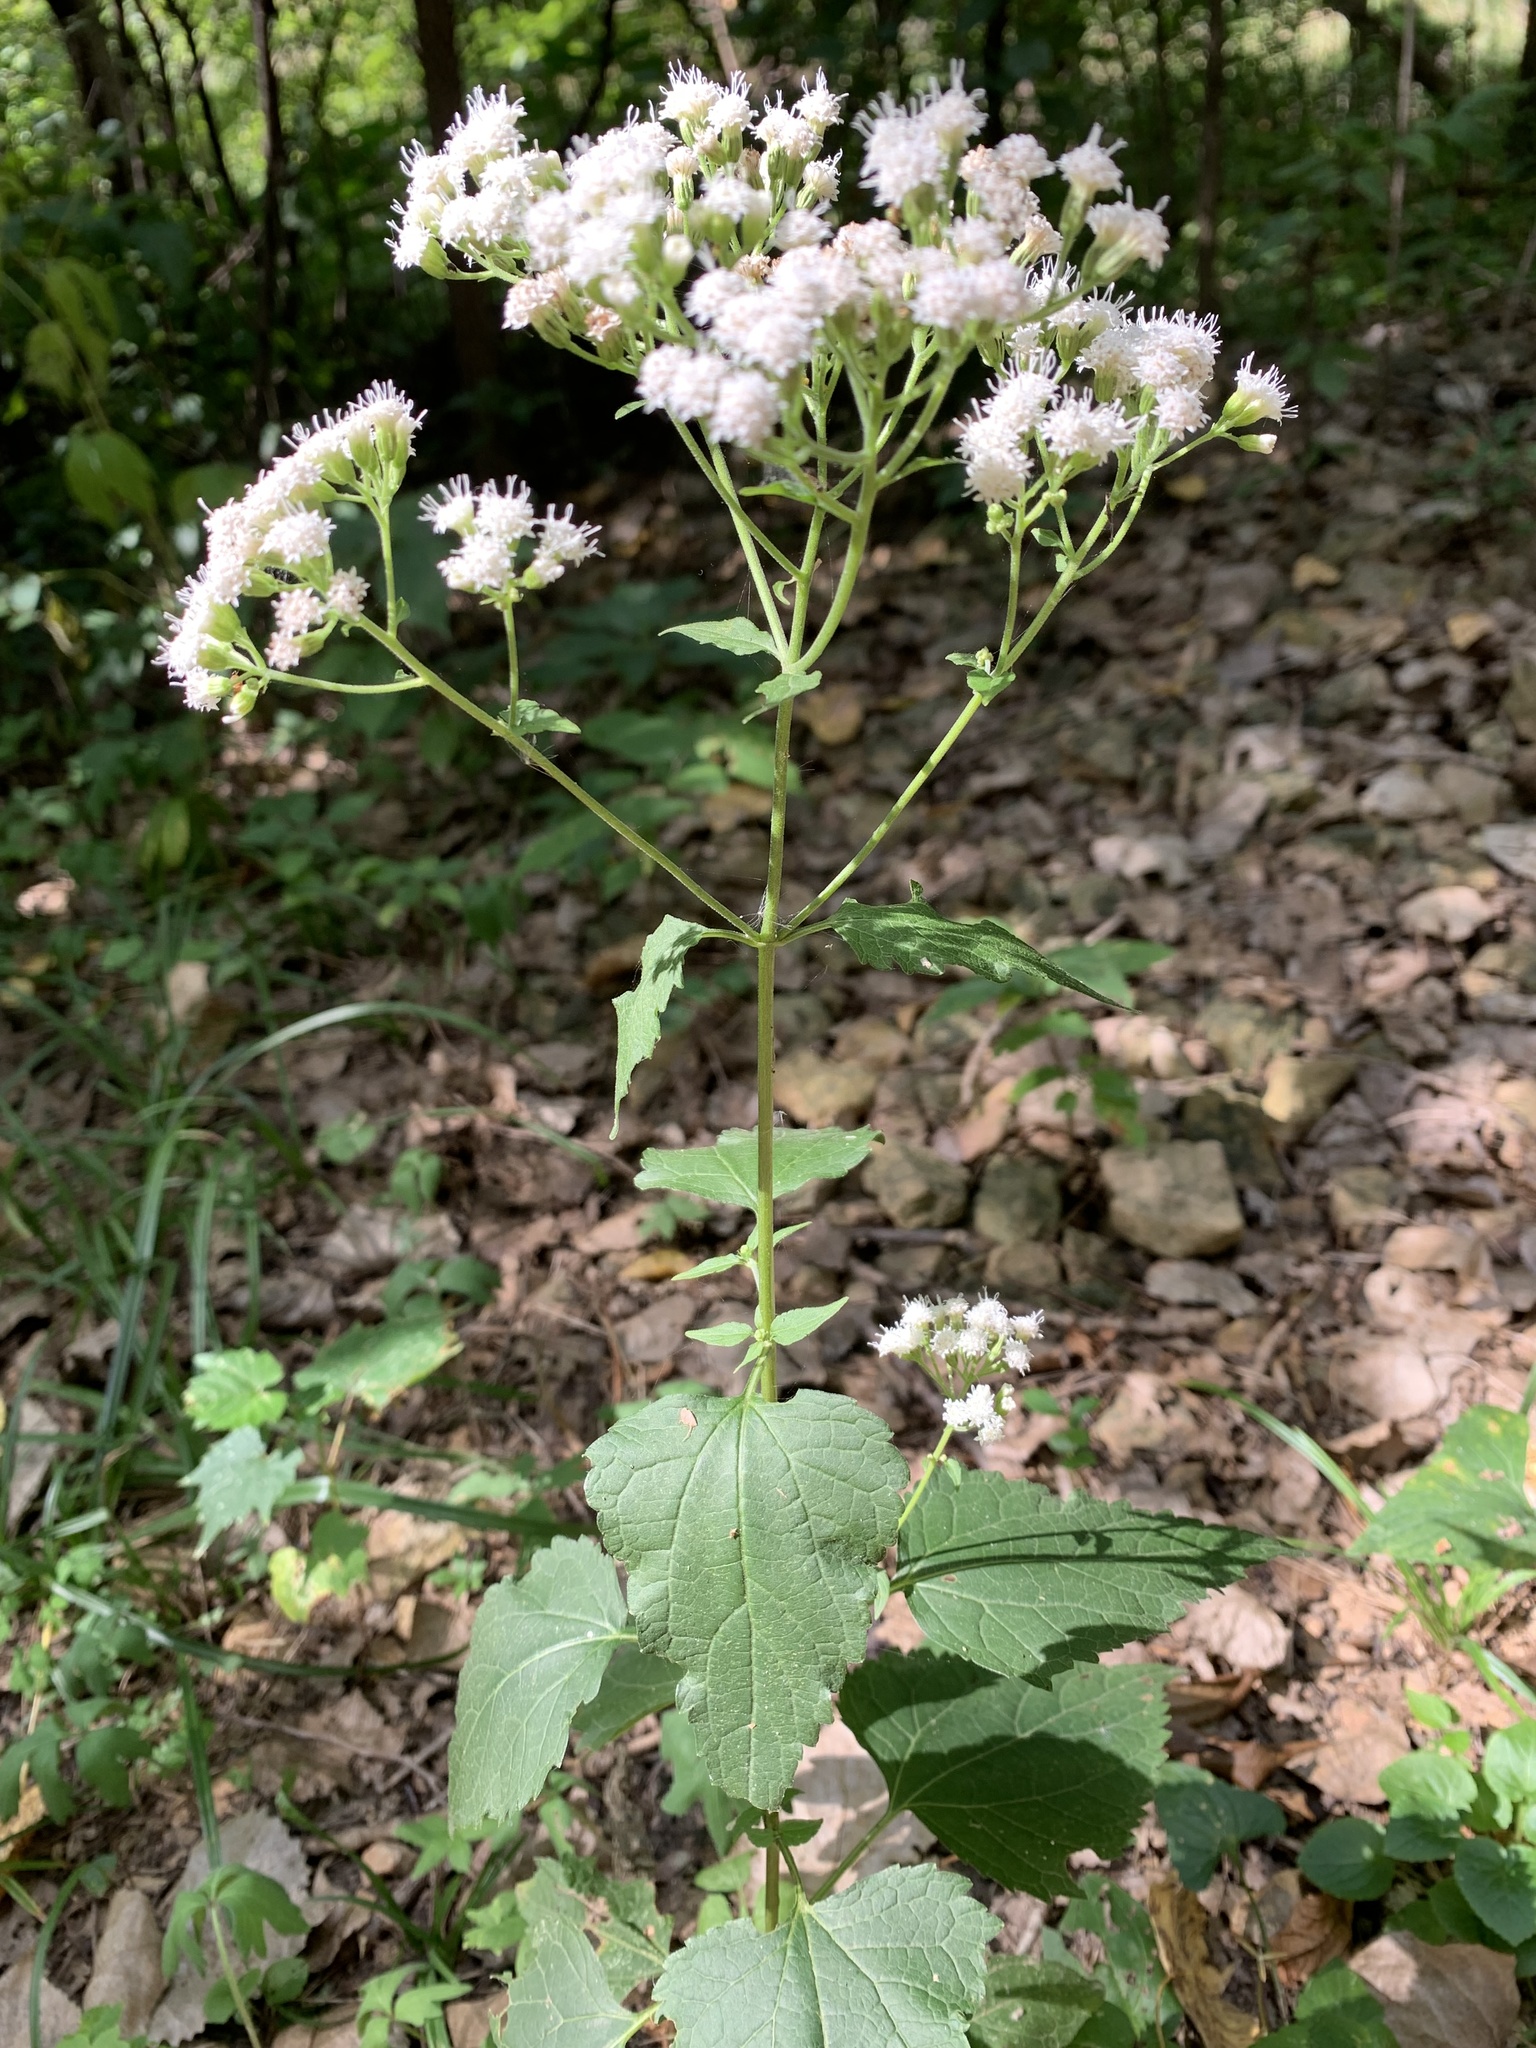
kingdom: Plantae
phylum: Tracheophyta
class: Magnoliopsida
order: Asterales
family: Asteraceae
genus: Ageratina
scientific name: Ageratina altissima
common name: White snakeroot
